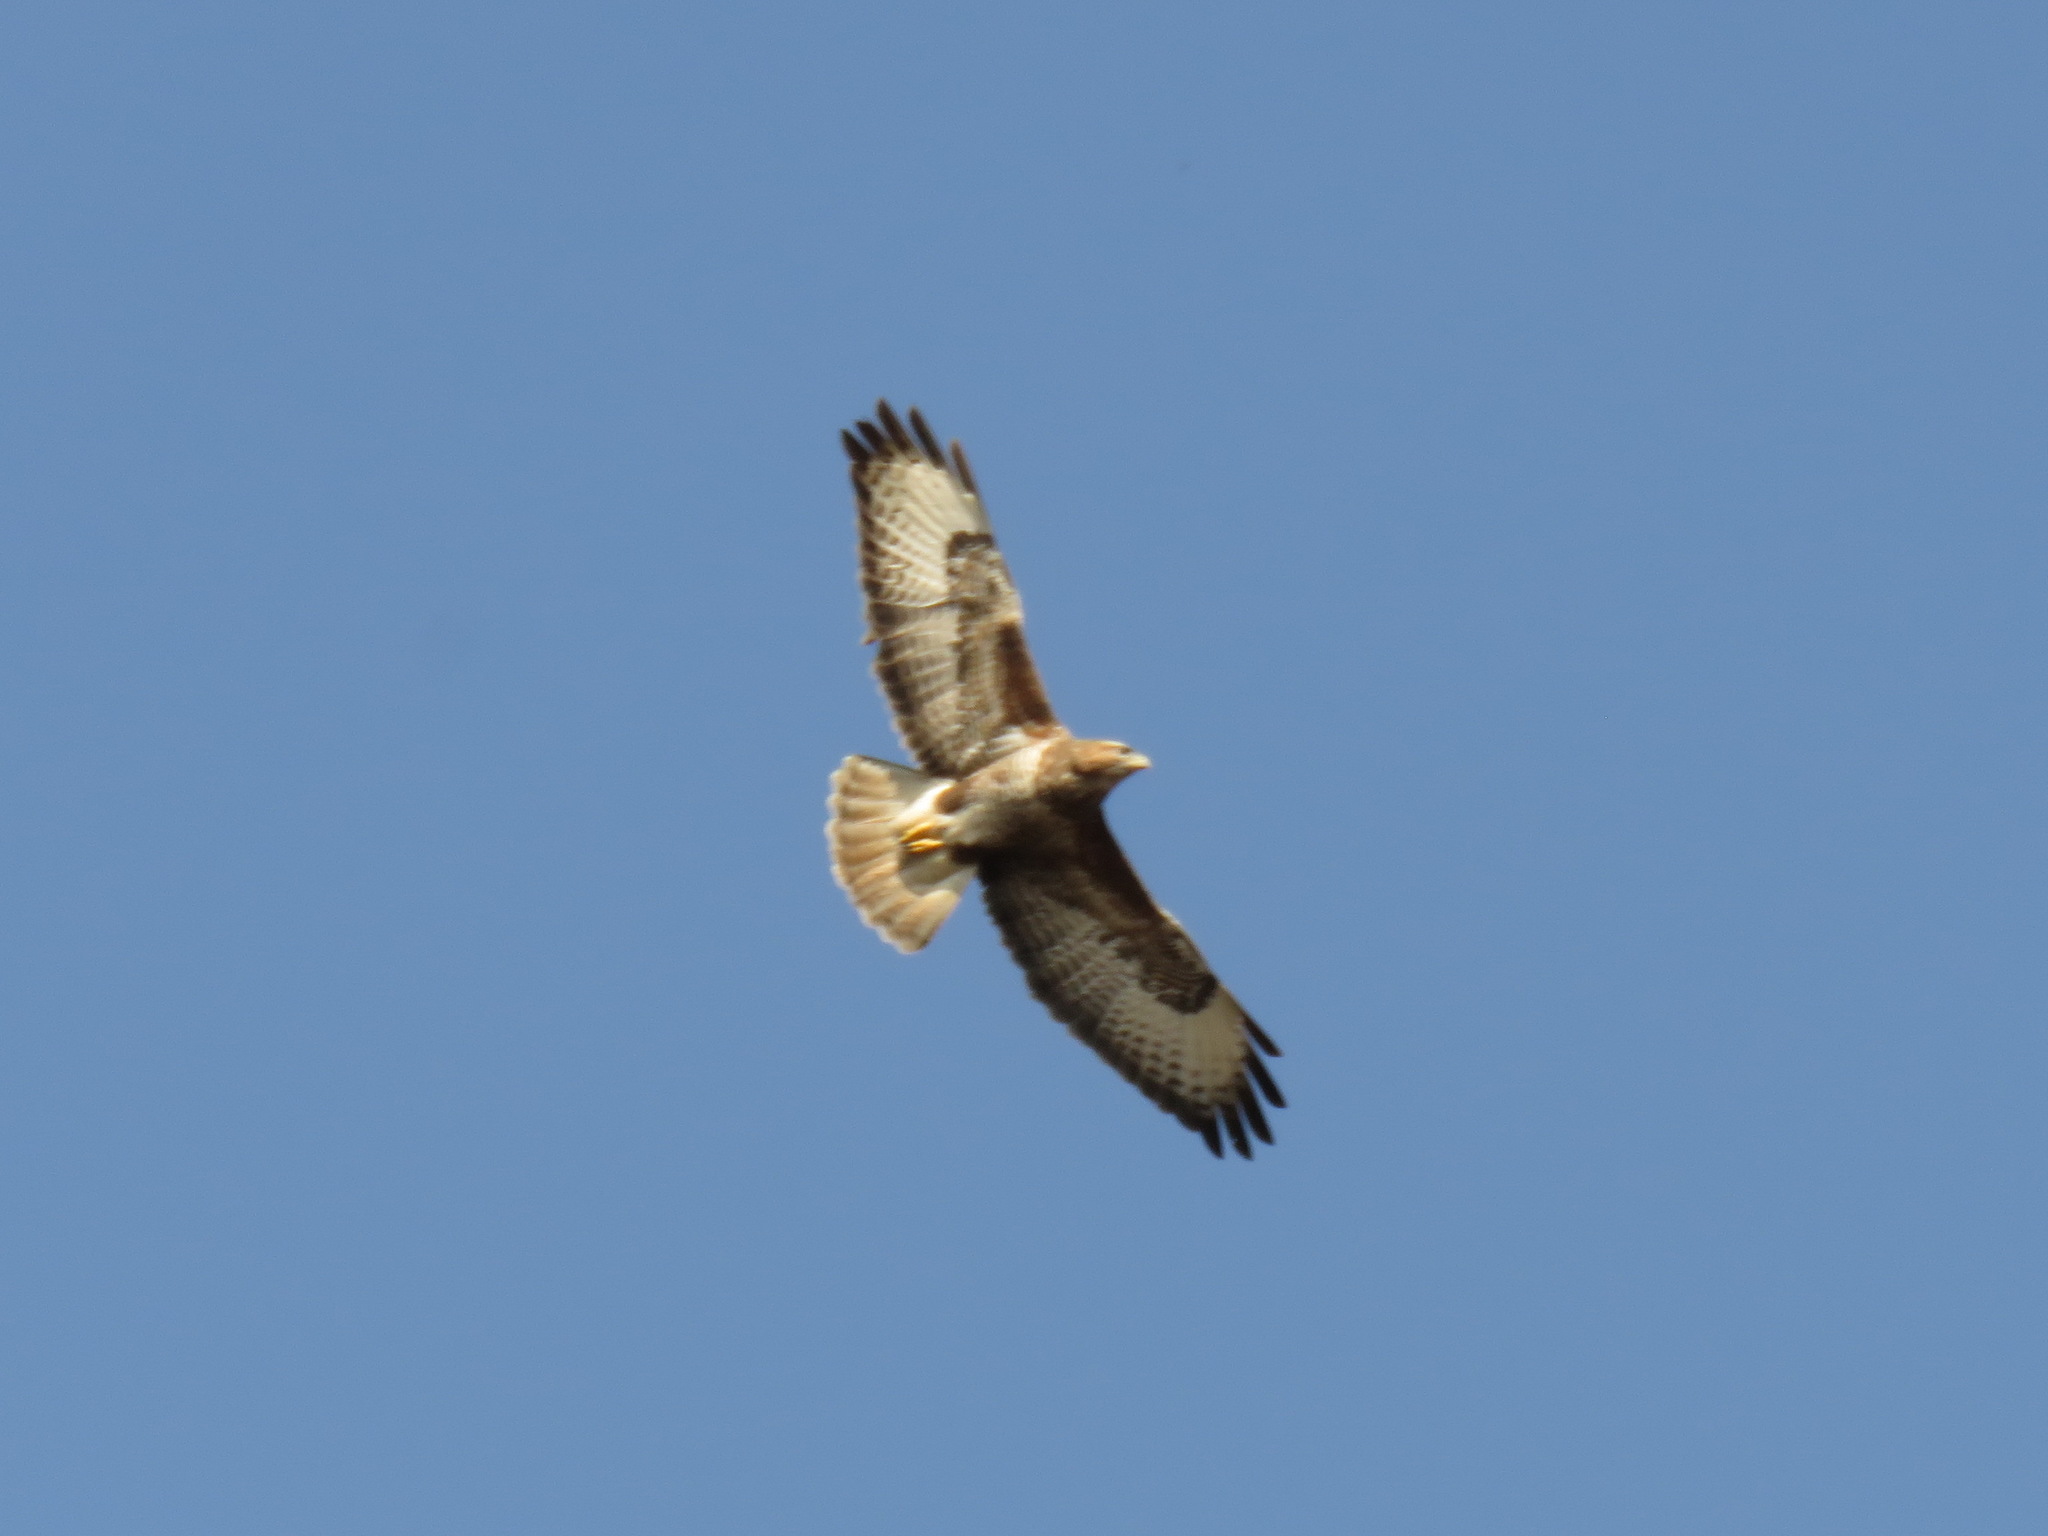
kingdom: Animalia
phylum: Chordata
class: Aves
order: Accipitriformes
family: Accipitridae
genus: Buteo
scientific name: Buteo buteo
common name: Common buzzard
